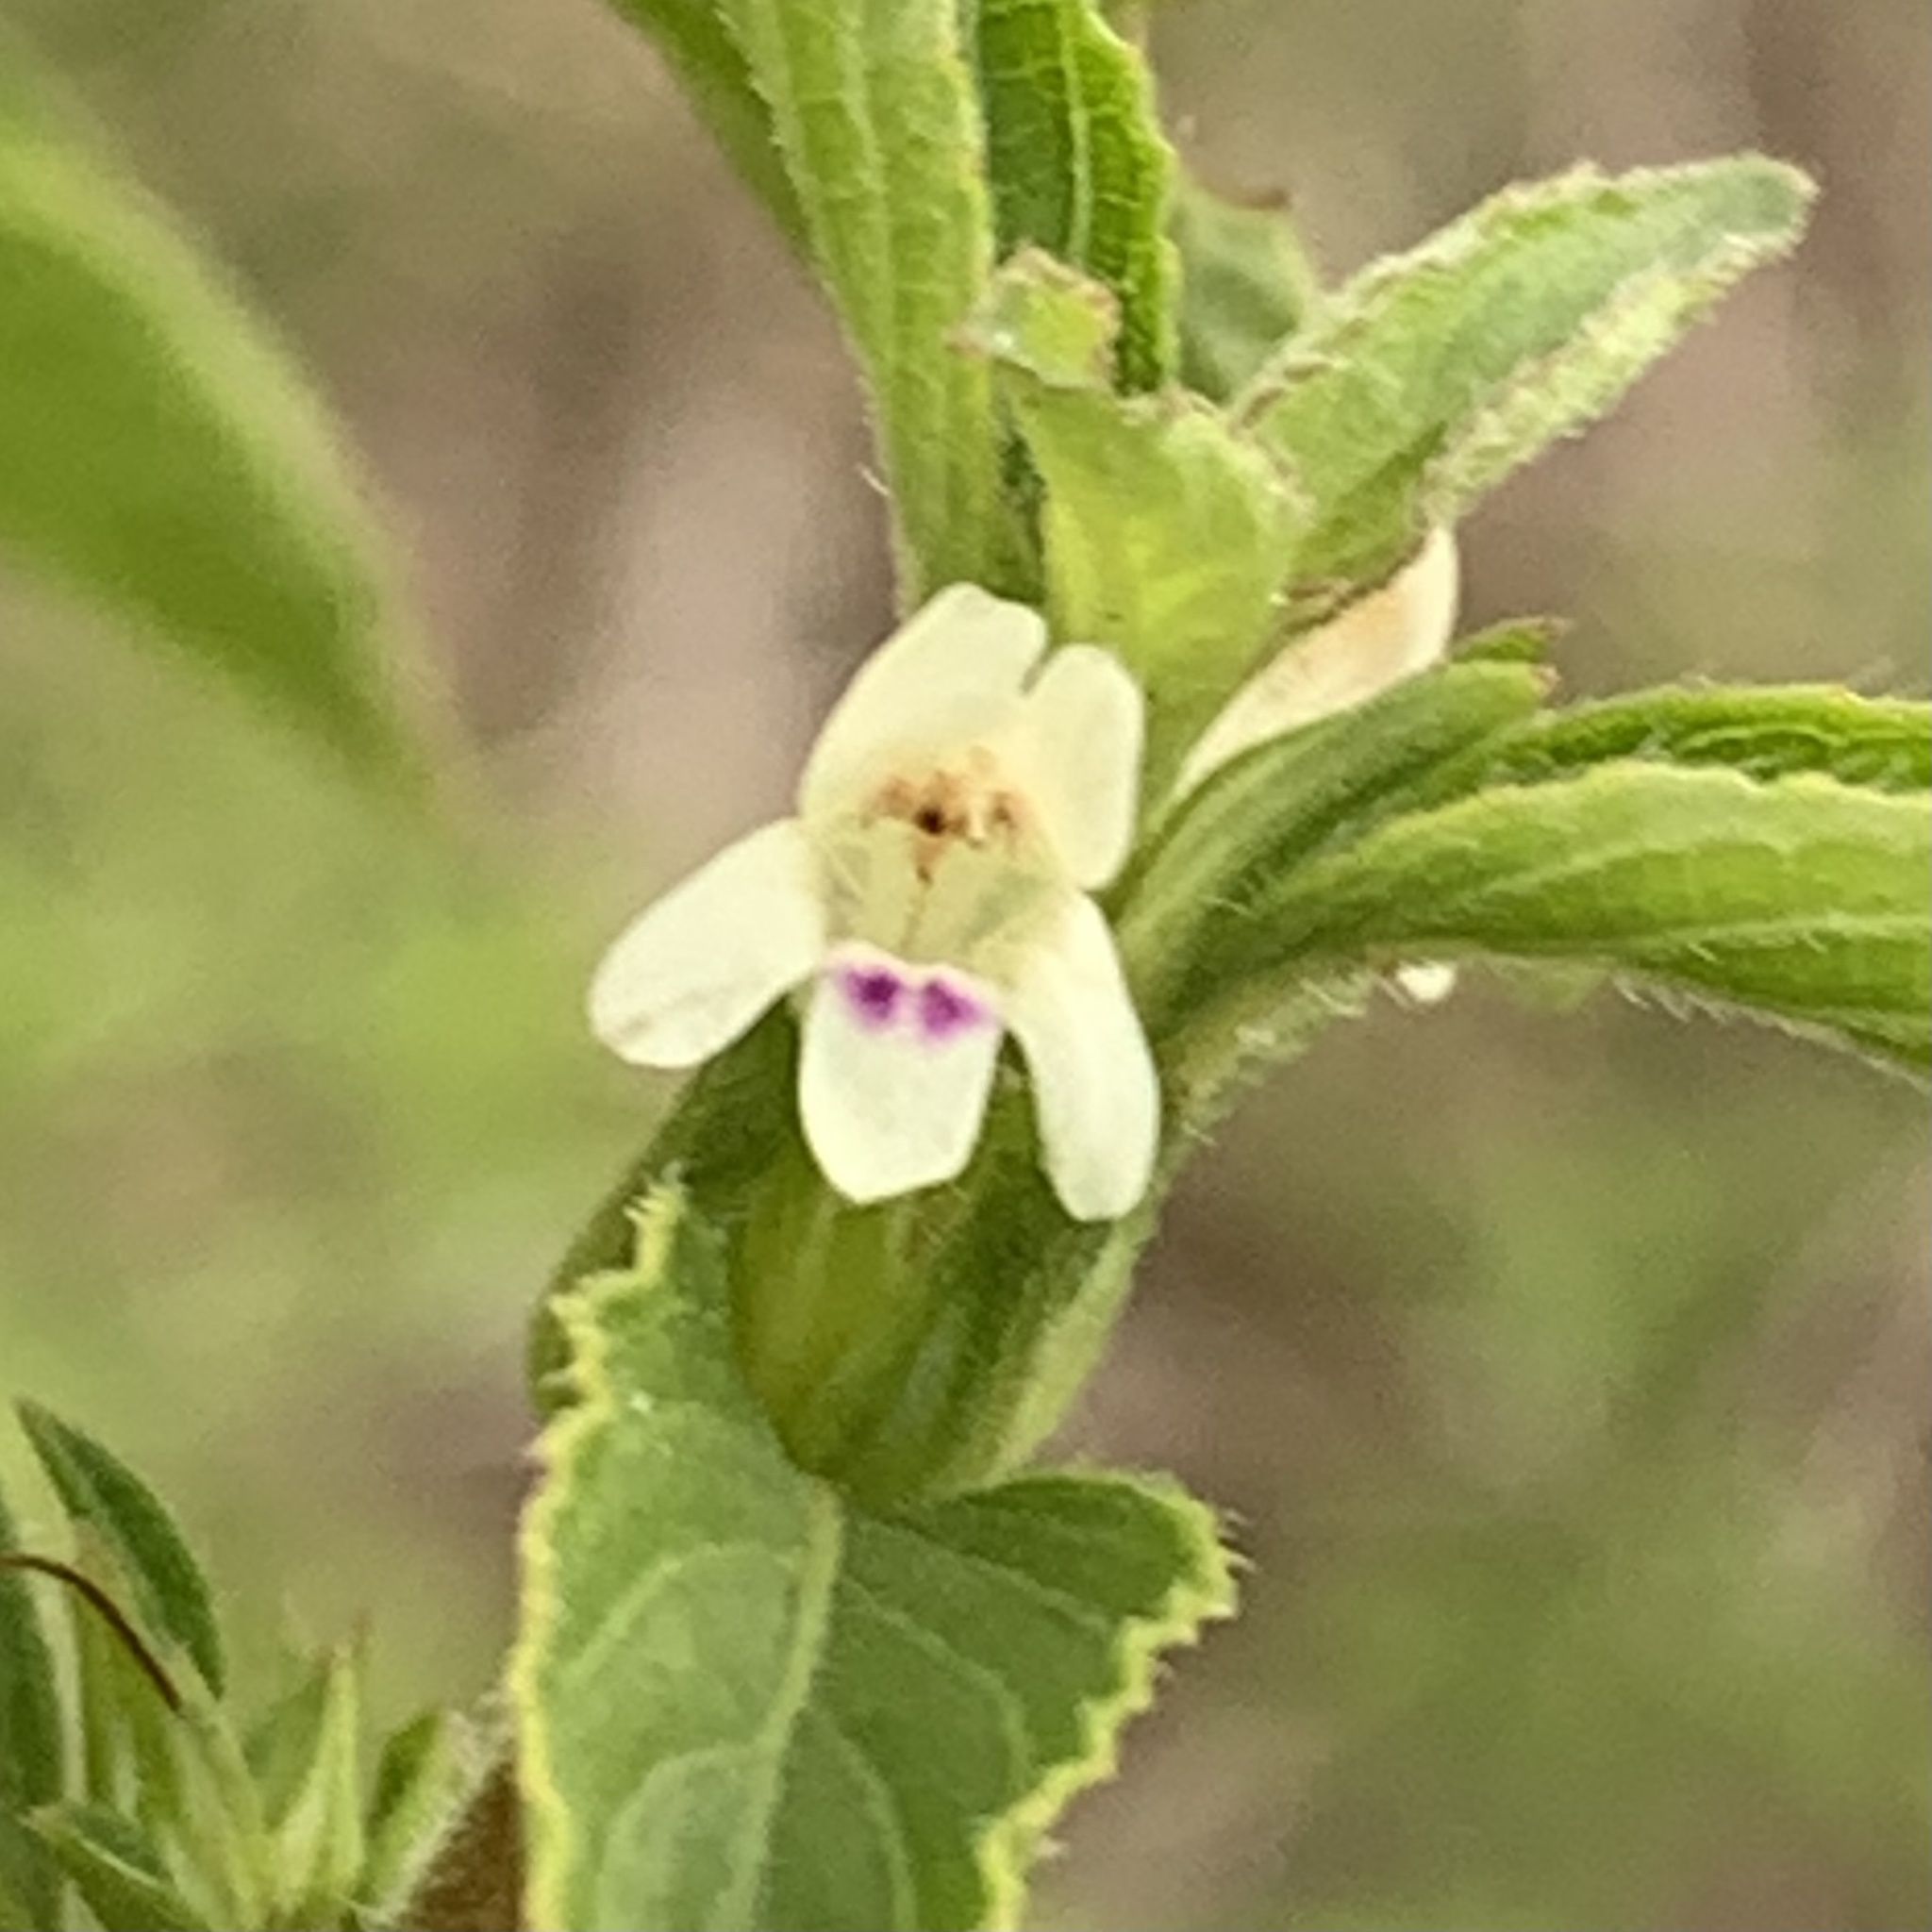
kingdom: Plantae
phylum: Tracheophyta
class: Magnoliopsida
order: Lamiales
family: Acanthaceae
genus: Duosperma
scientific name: Duosperma crenatum
